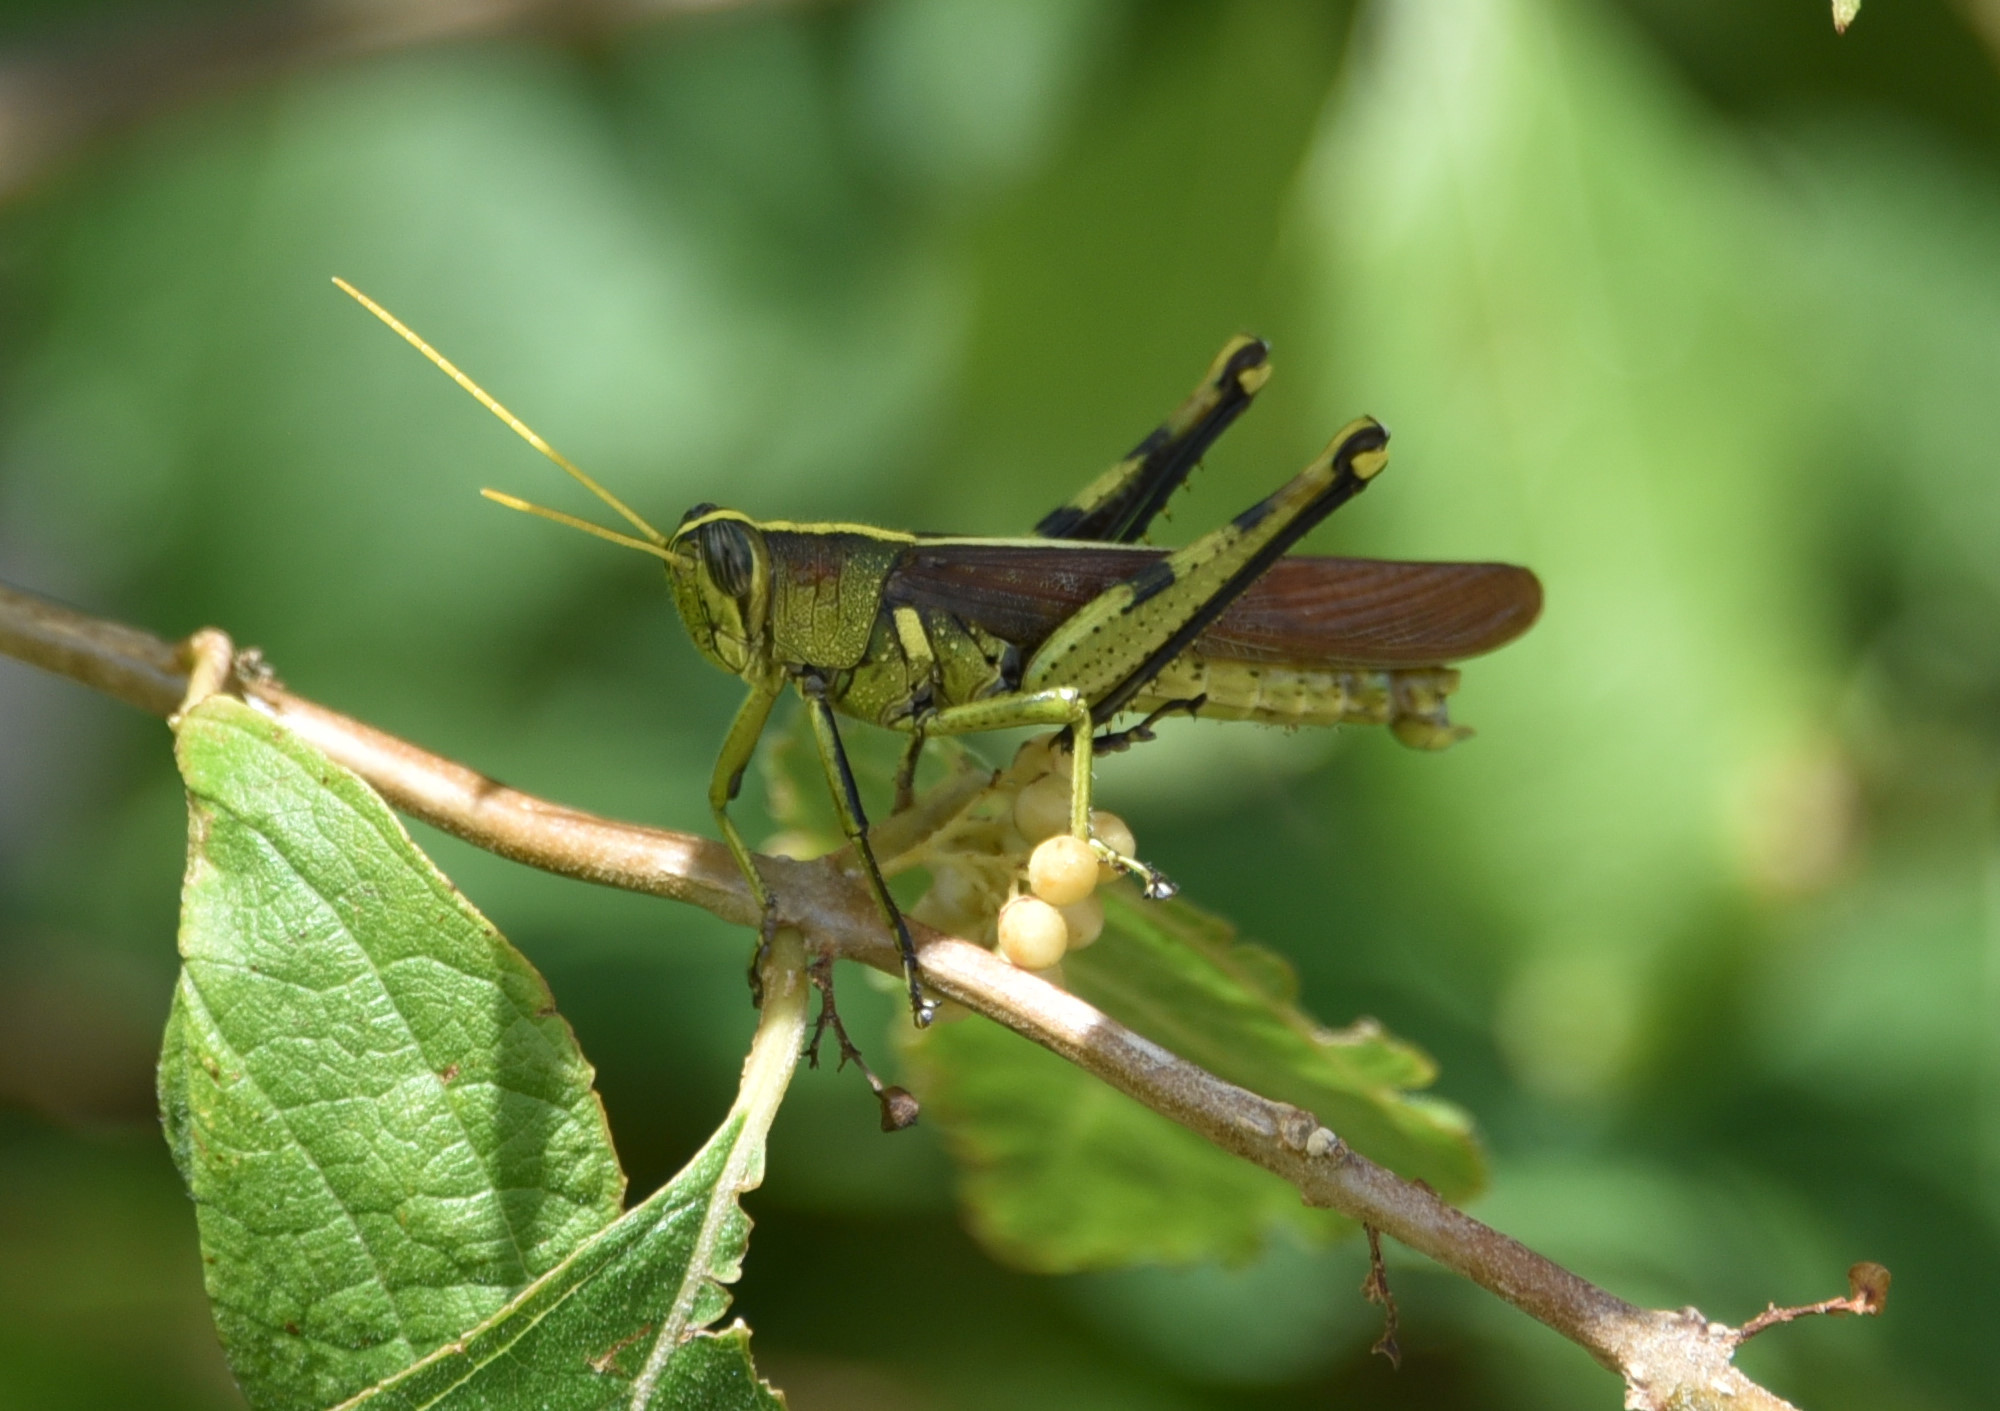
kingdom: Animalia
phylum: Arthropoda
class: Insecta
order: Orthoptera
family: Acrididae
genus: Schistocerca
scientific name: Schistocerca obscura
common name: Obscure bird grasshopper
